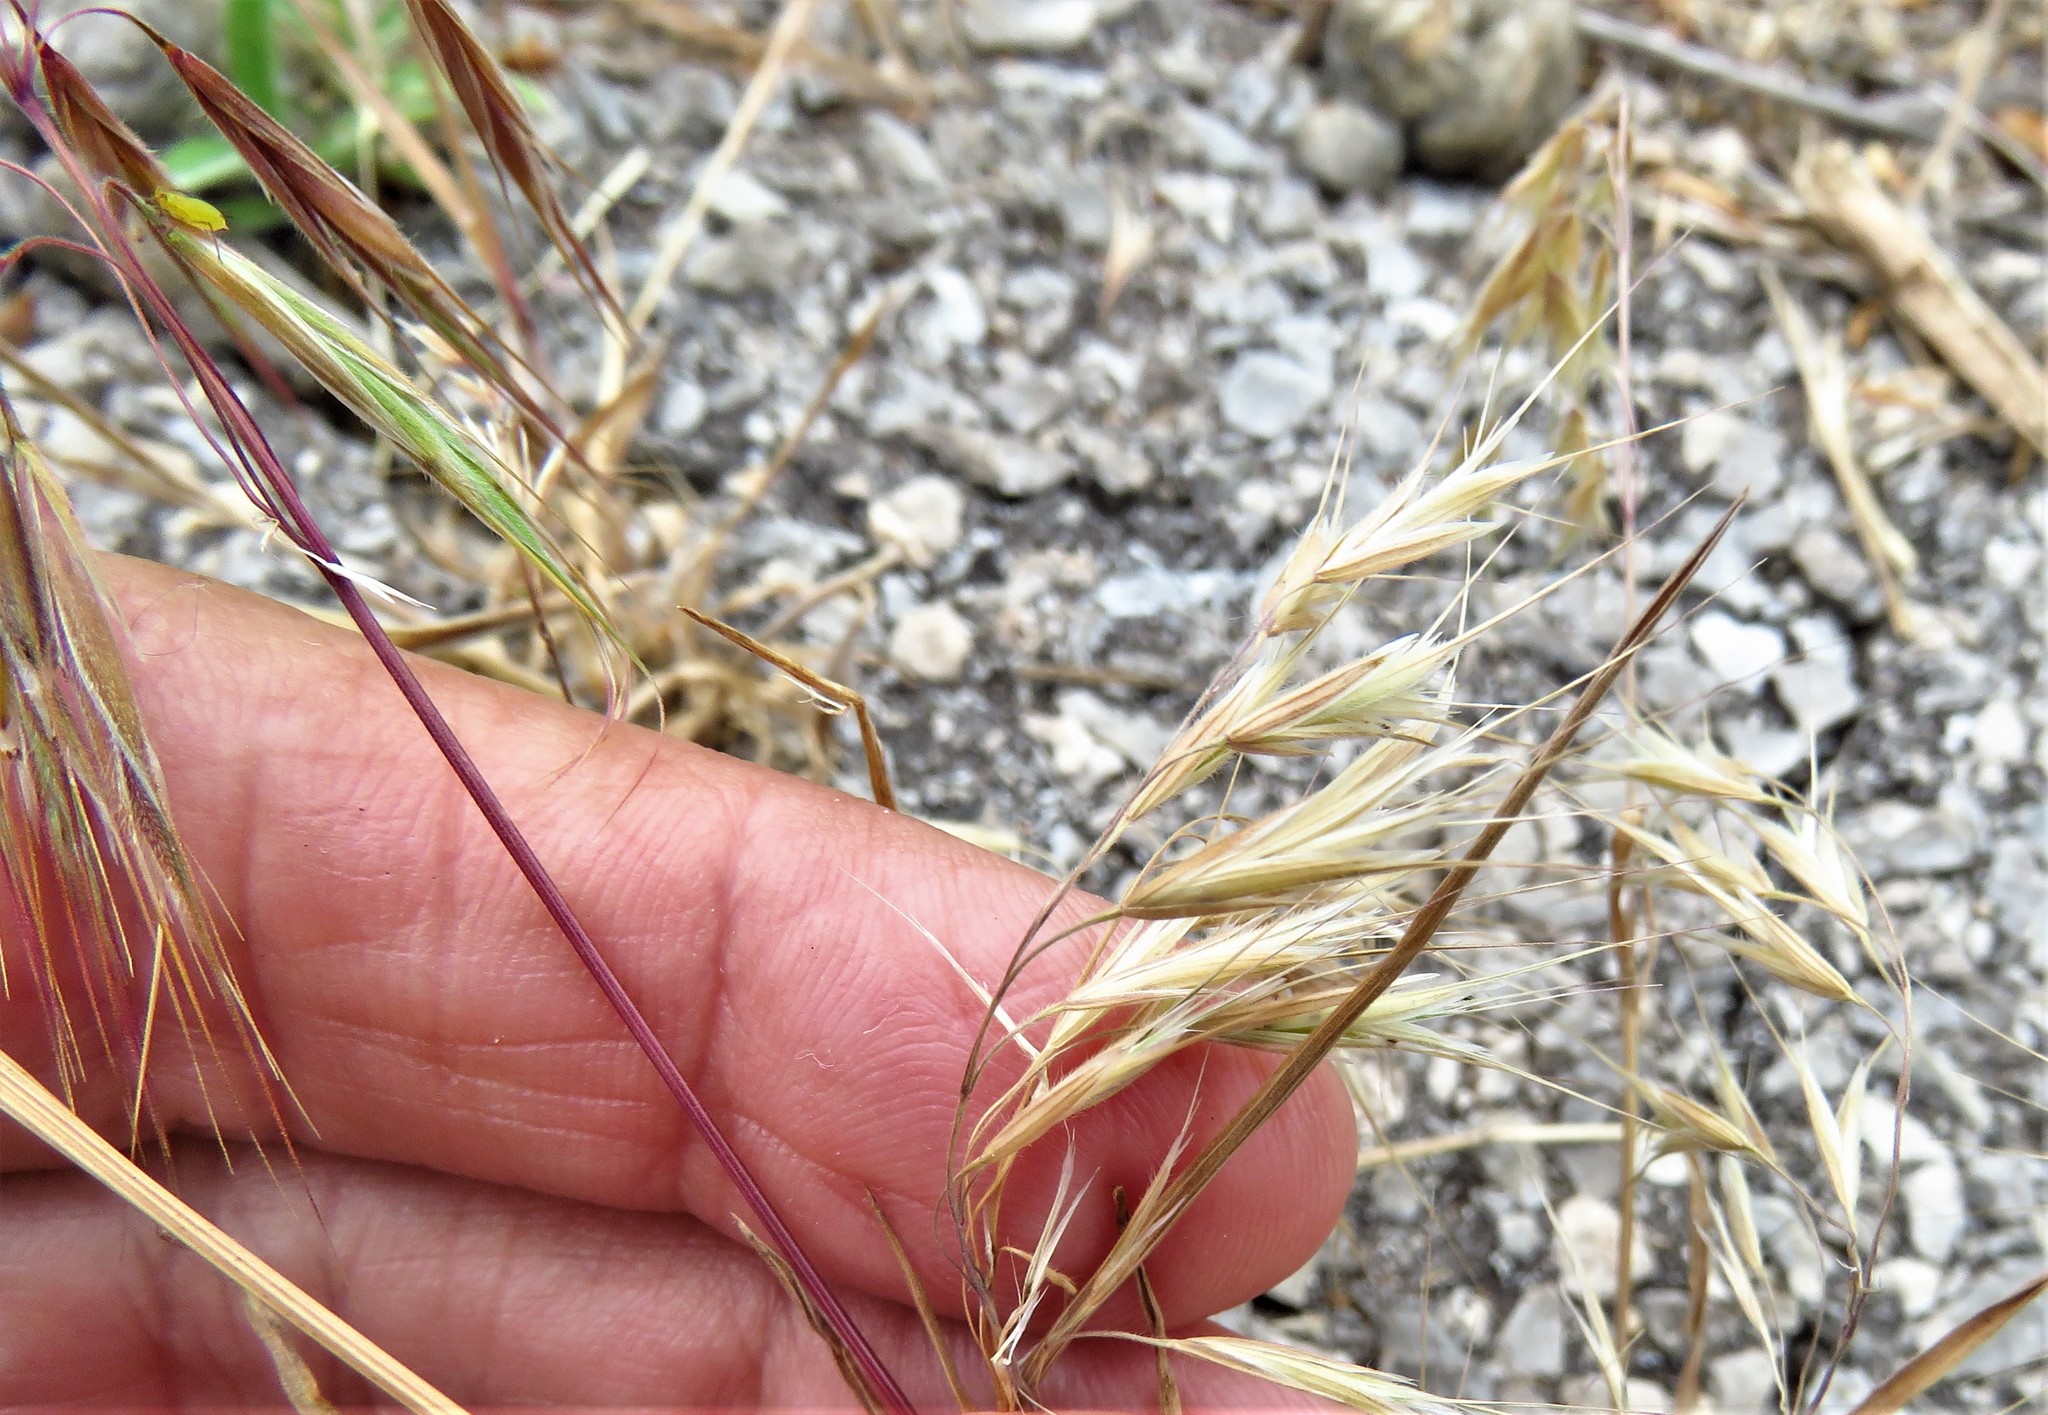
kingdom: Plantae
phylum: Tracheophyta
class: Liliopsida
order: Poales
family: Poaceae
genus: Bromus
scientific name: Bromus tectorum
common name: Cheatgrass
